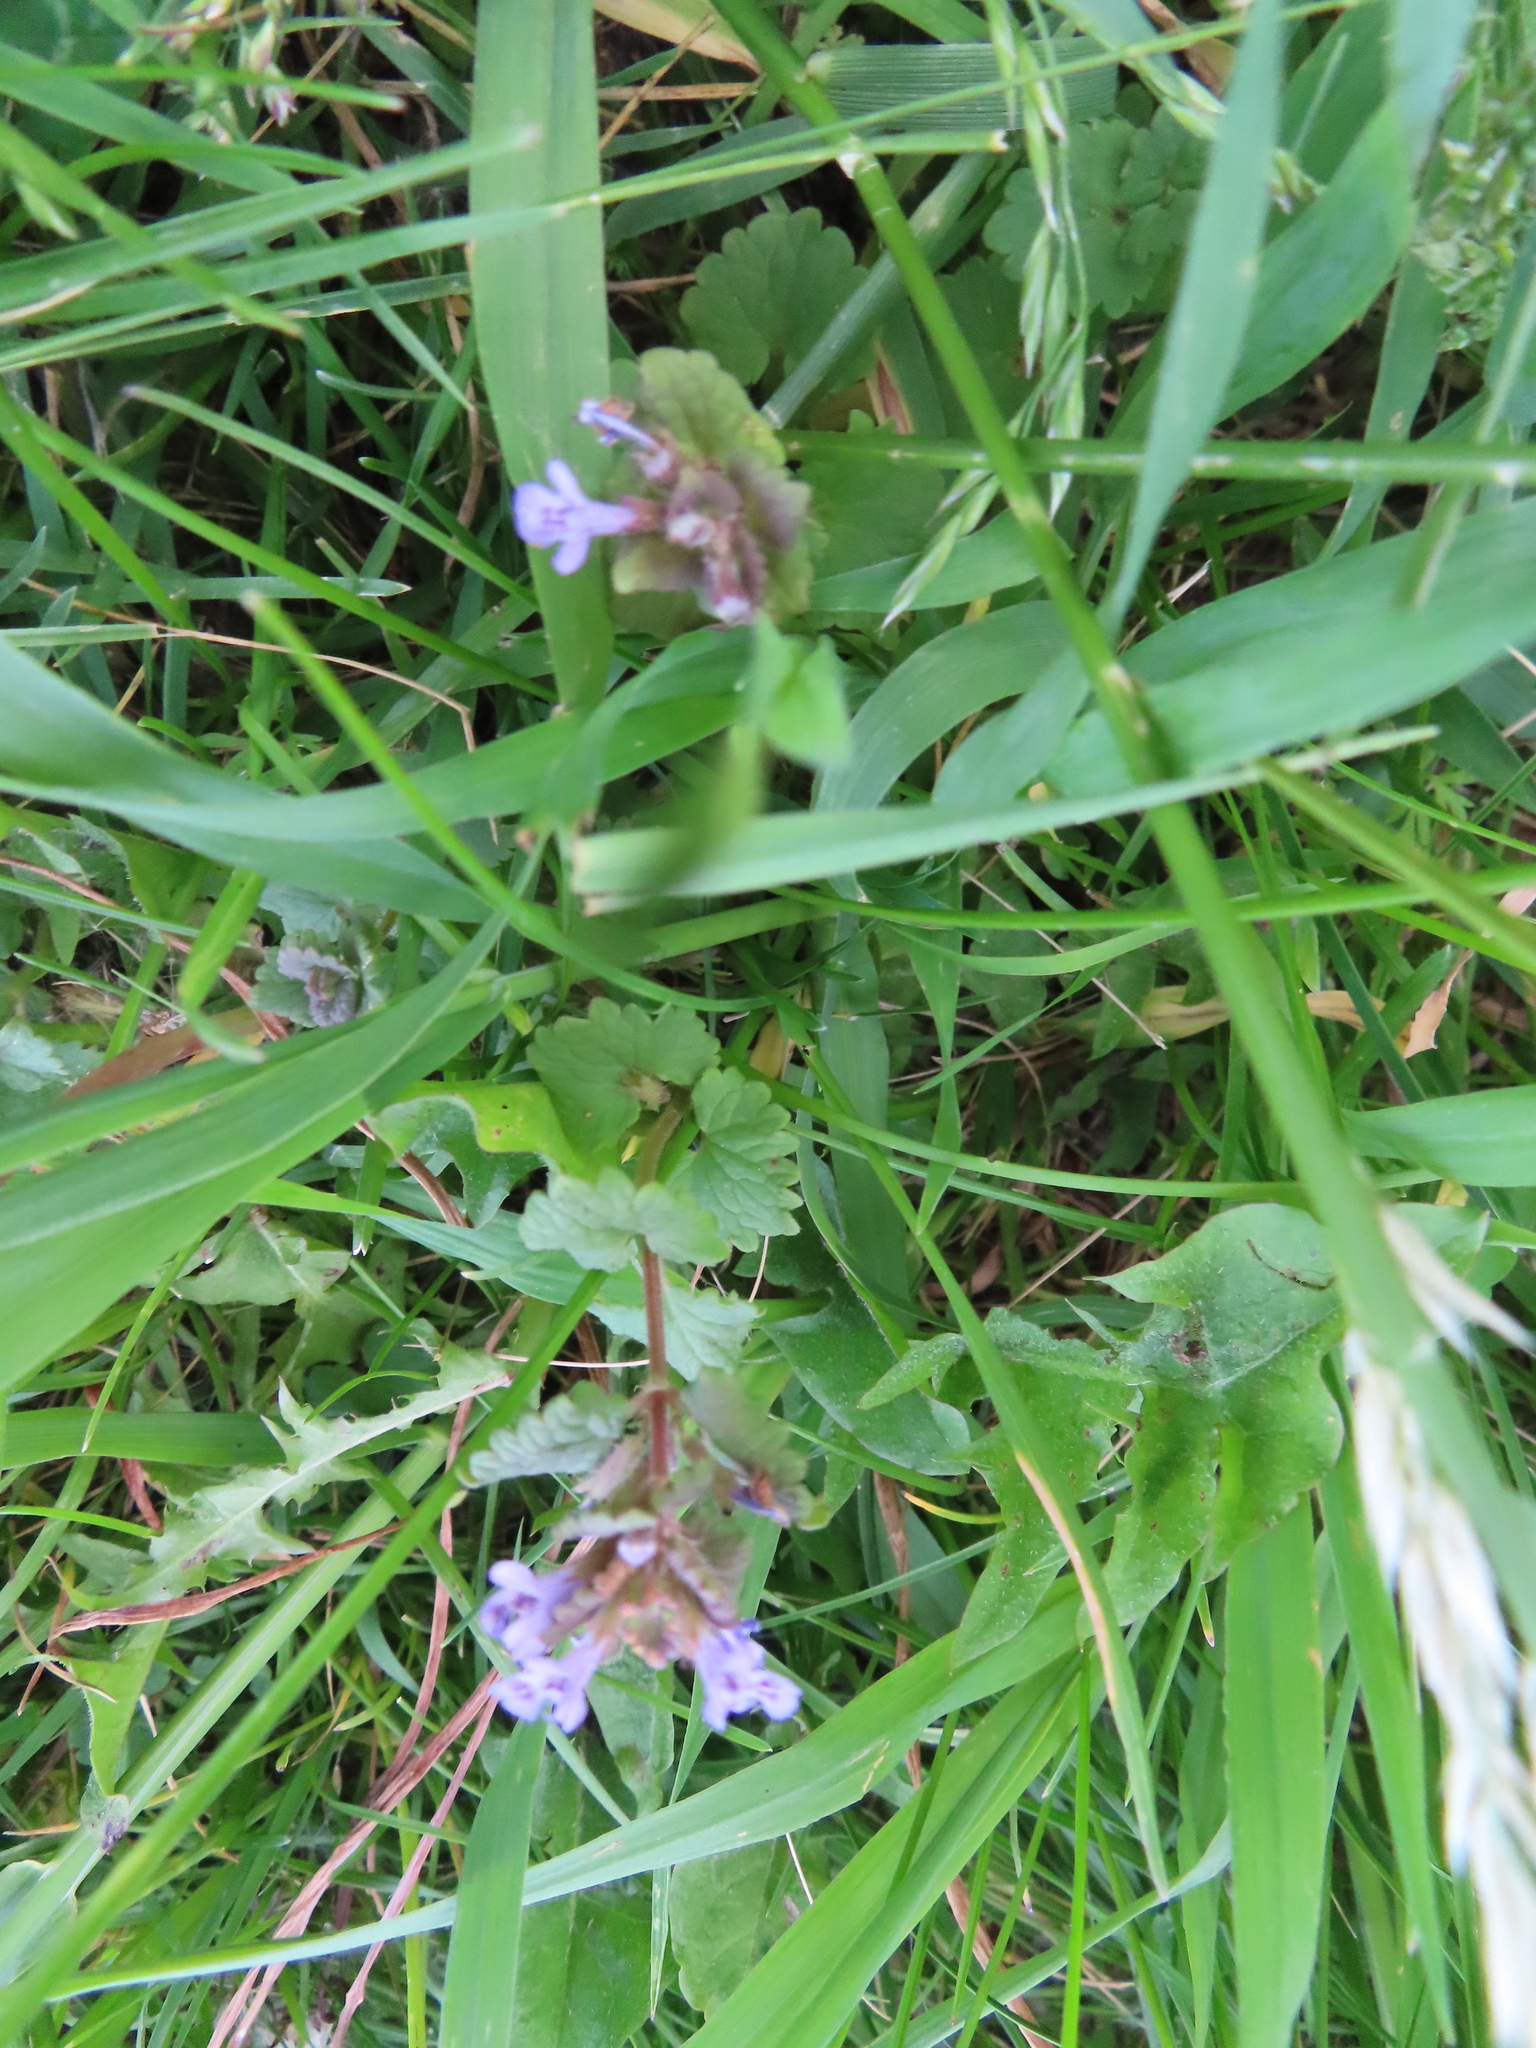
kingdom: Plantae
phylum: Tracheophyta
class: Magnoliopsida
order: Lamiales
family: Lamiaceae
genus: Glechoma
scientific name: Glechoma hederacea
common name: Ground ivy
